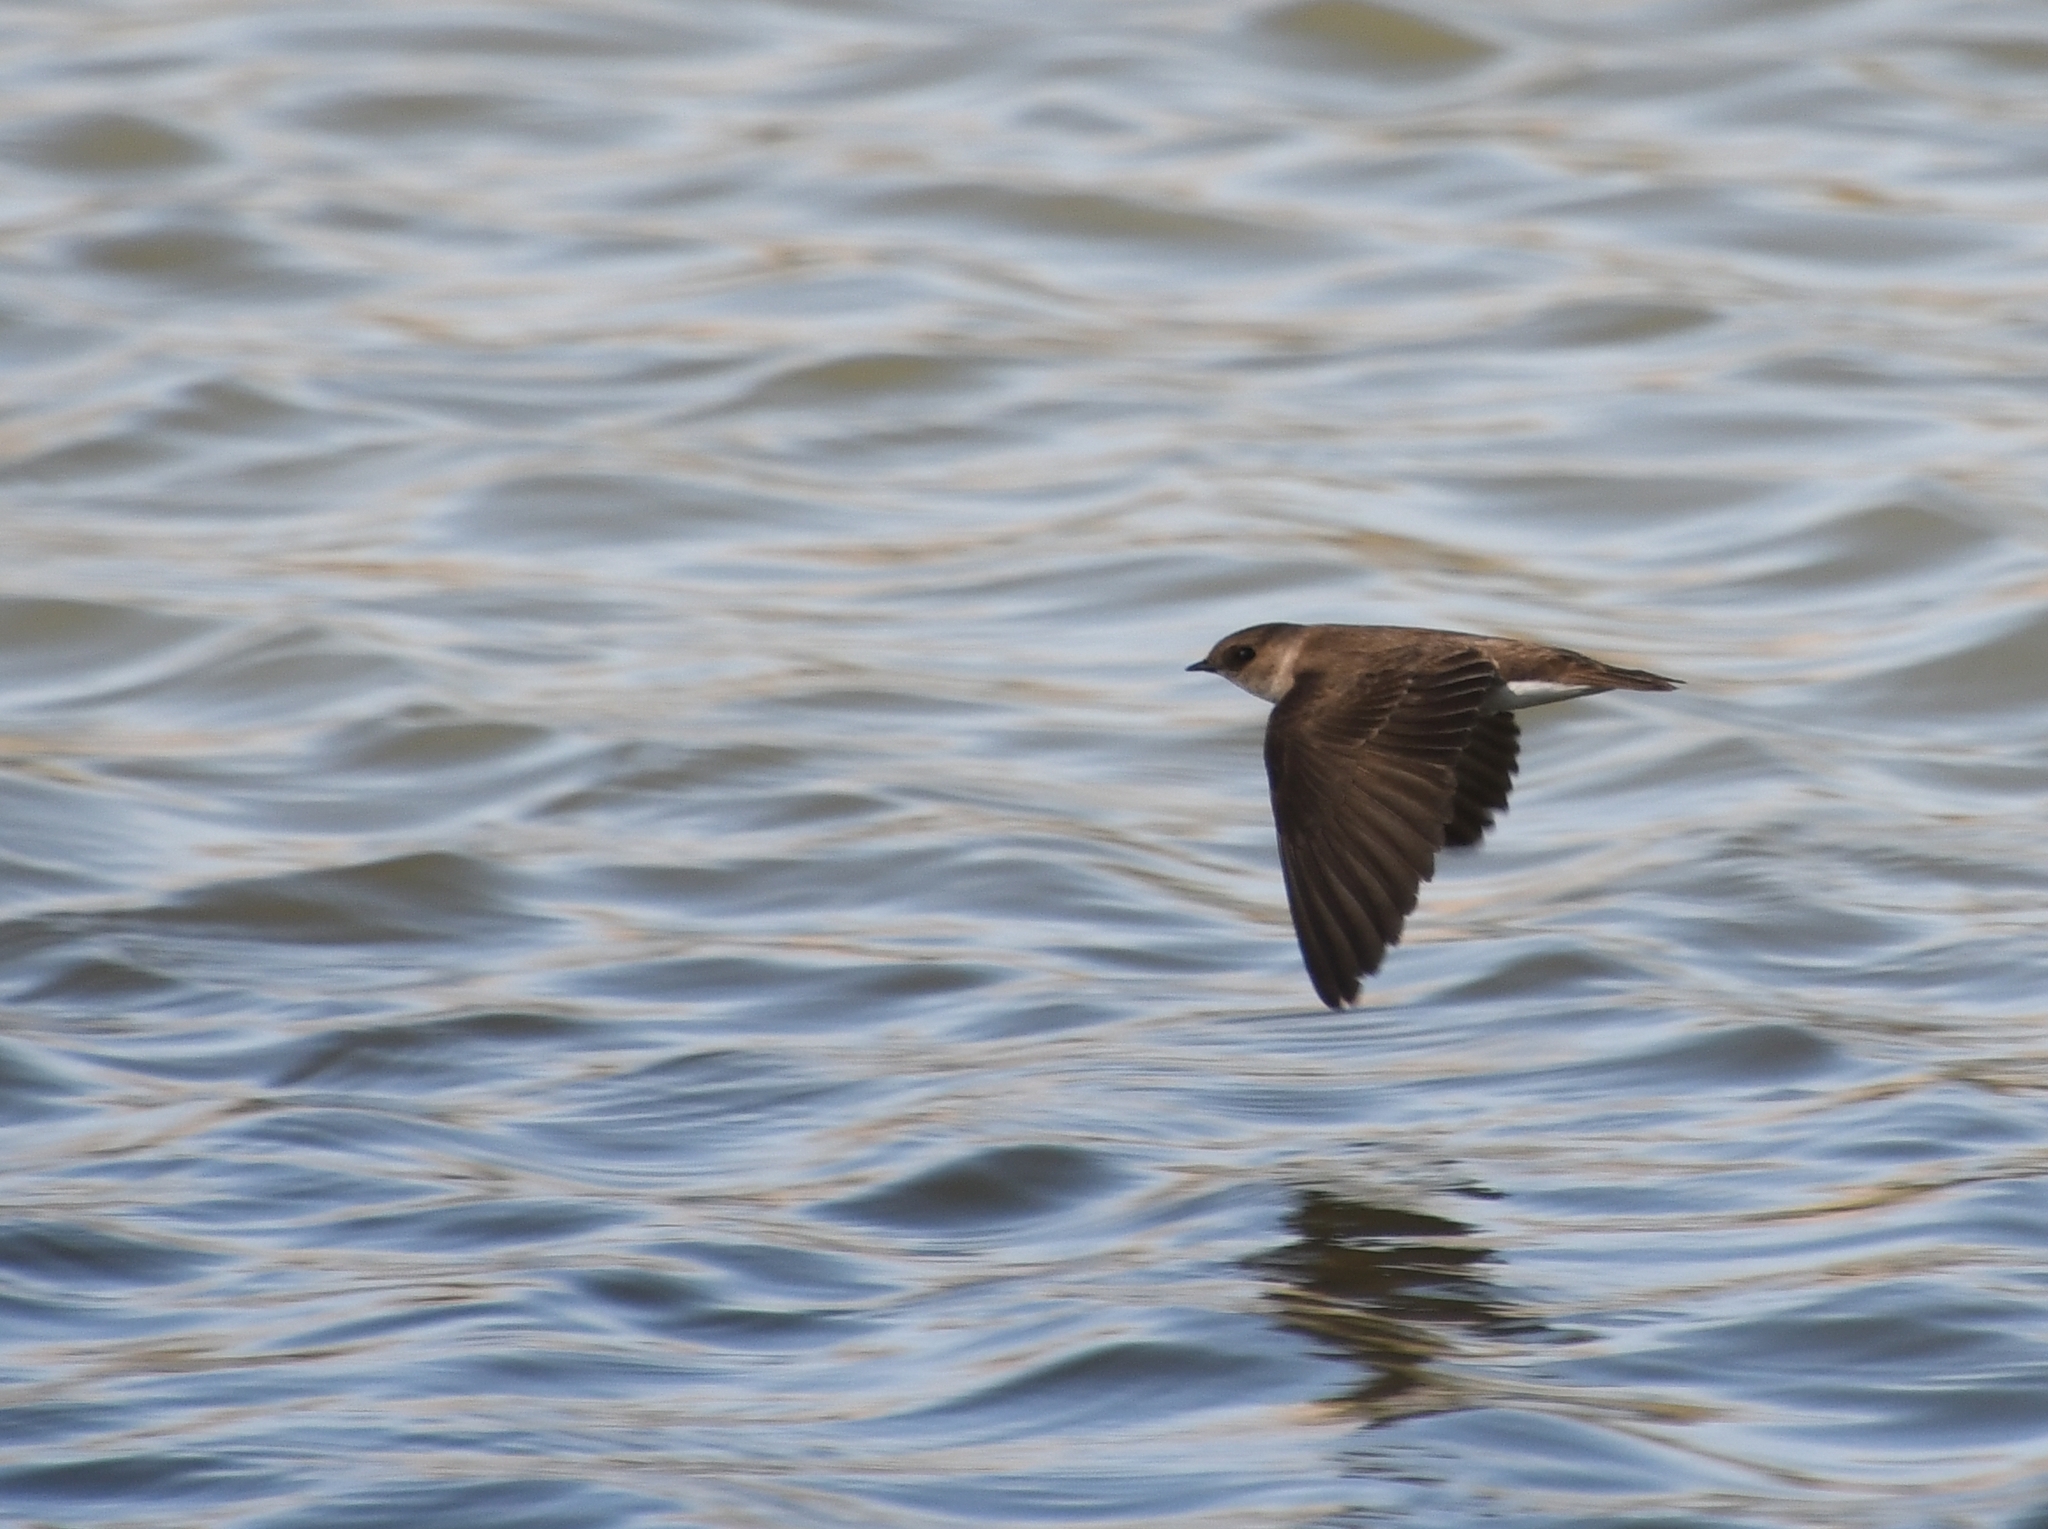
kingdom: Animalia
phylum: Chordata
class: Aves
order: Passeriformes
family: Hirundinidae
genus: Stelgidopteryx
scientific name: Stelgidopteryx serripennis
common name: Northern rough-winged swallow
